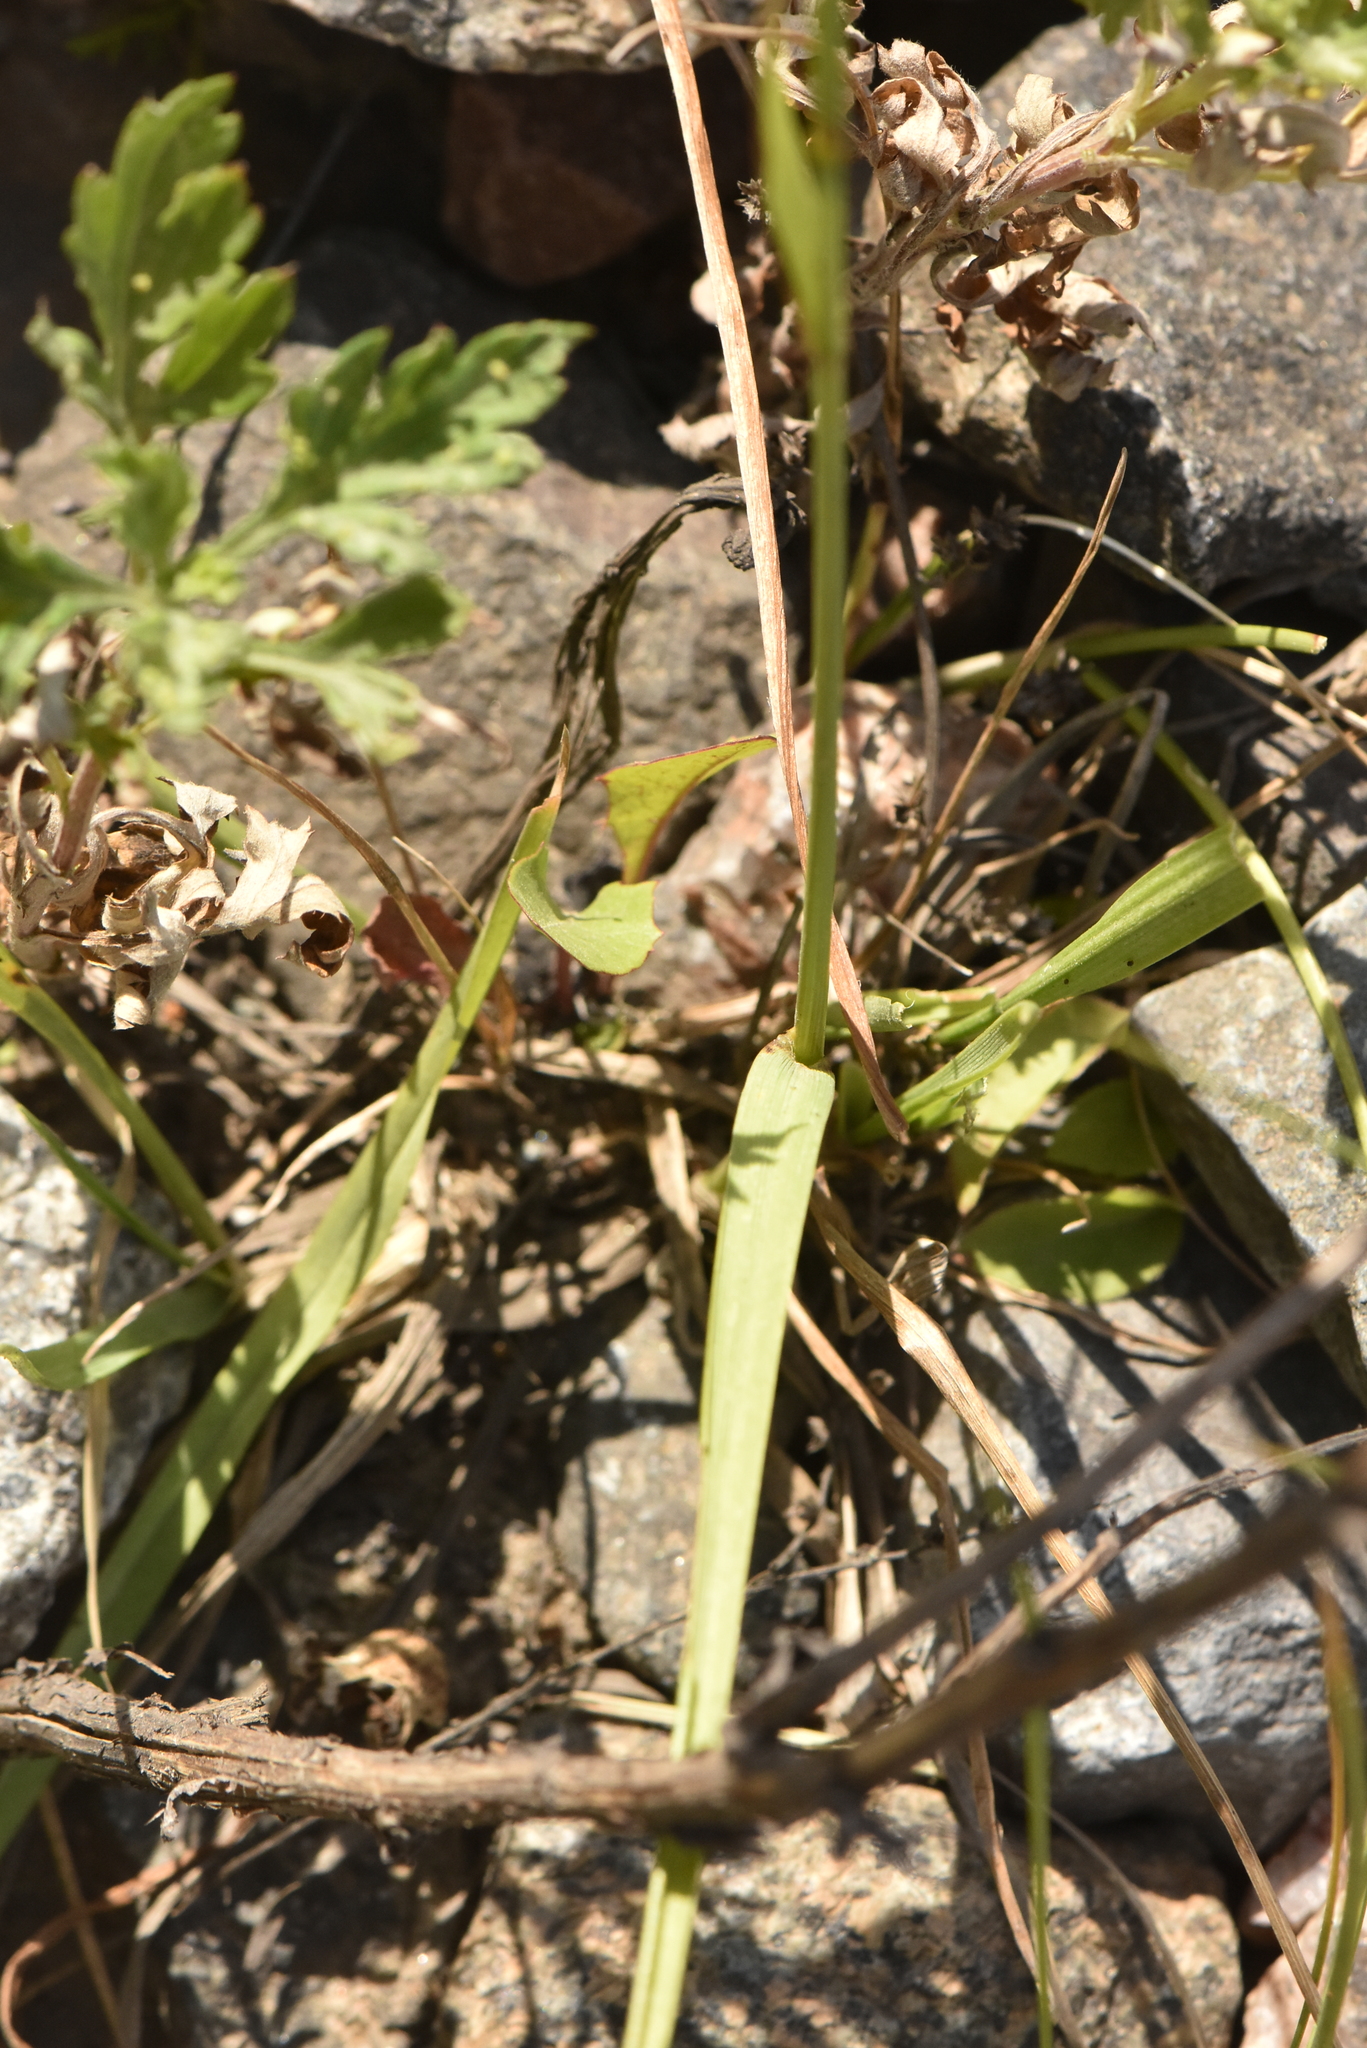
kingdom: Plantae
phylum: Tracheophyta
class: Liliopsida
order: Poales
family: Poaceae
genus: Lolium
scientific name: Lolium pratense
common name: Dover grass
